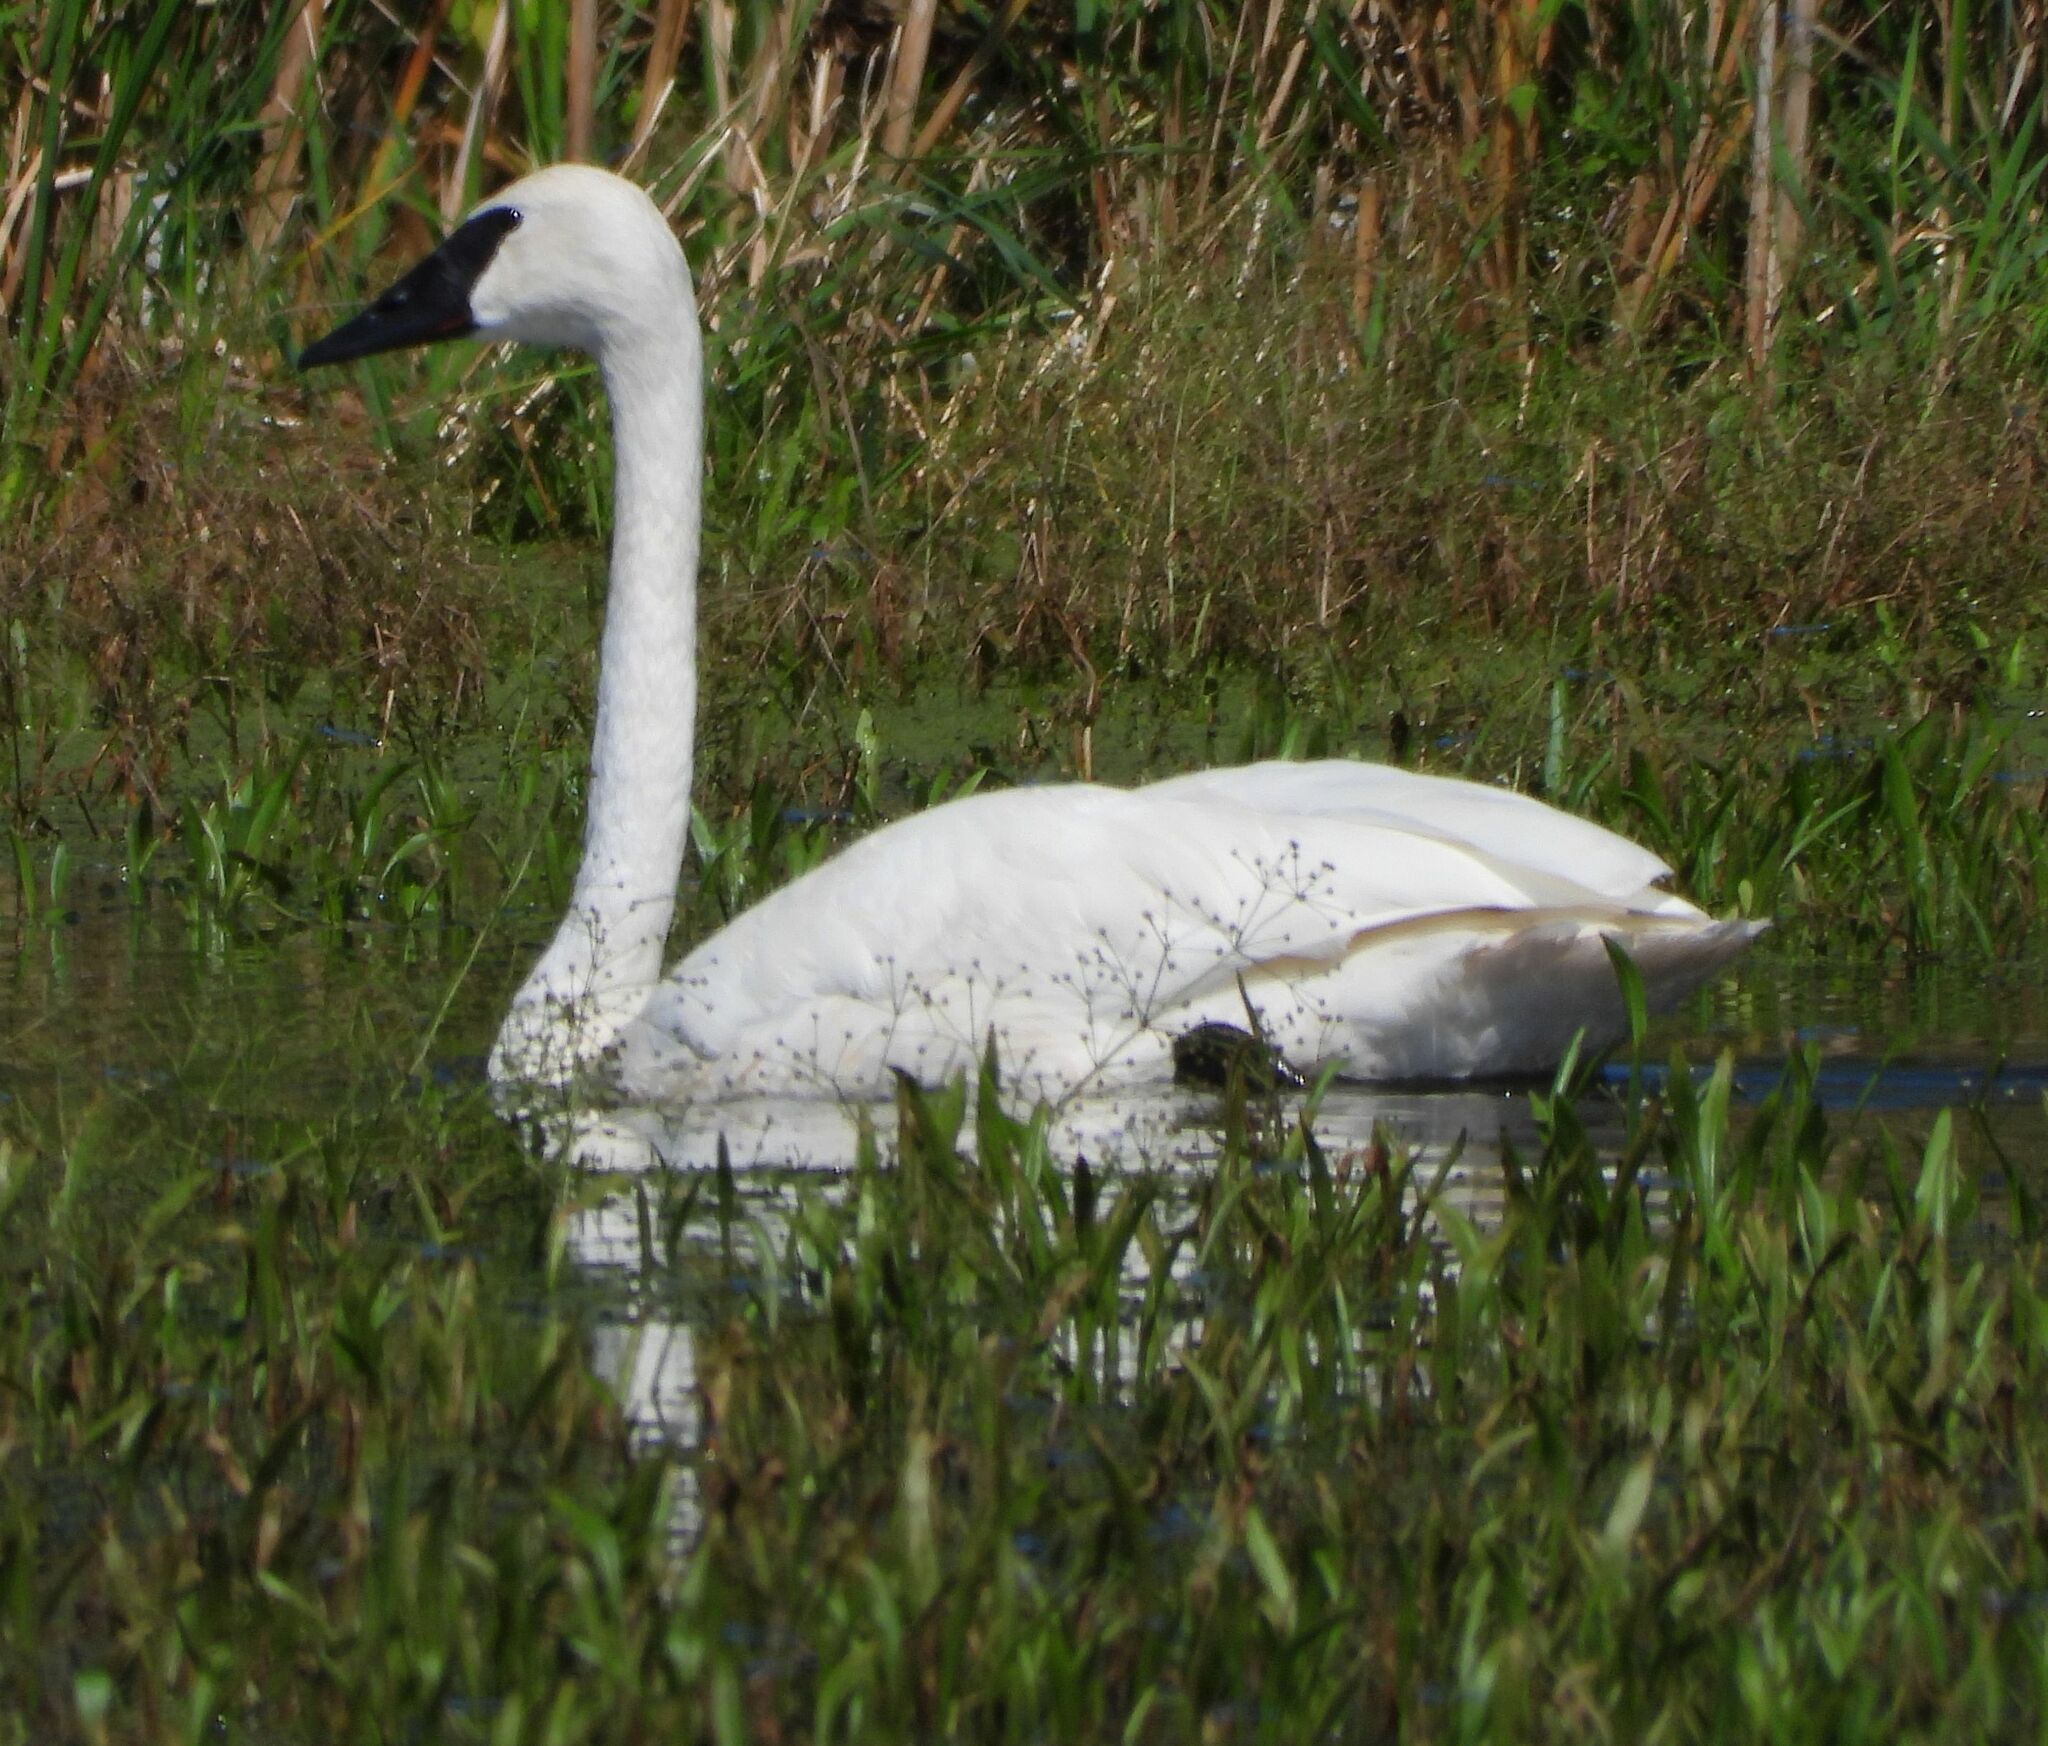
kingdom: Animalia
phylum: Chordata
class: Aves
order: Anseriformes
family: Anatidae
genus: Cygnus
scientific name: Cygnus buccinator
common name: Trumpeter swan
